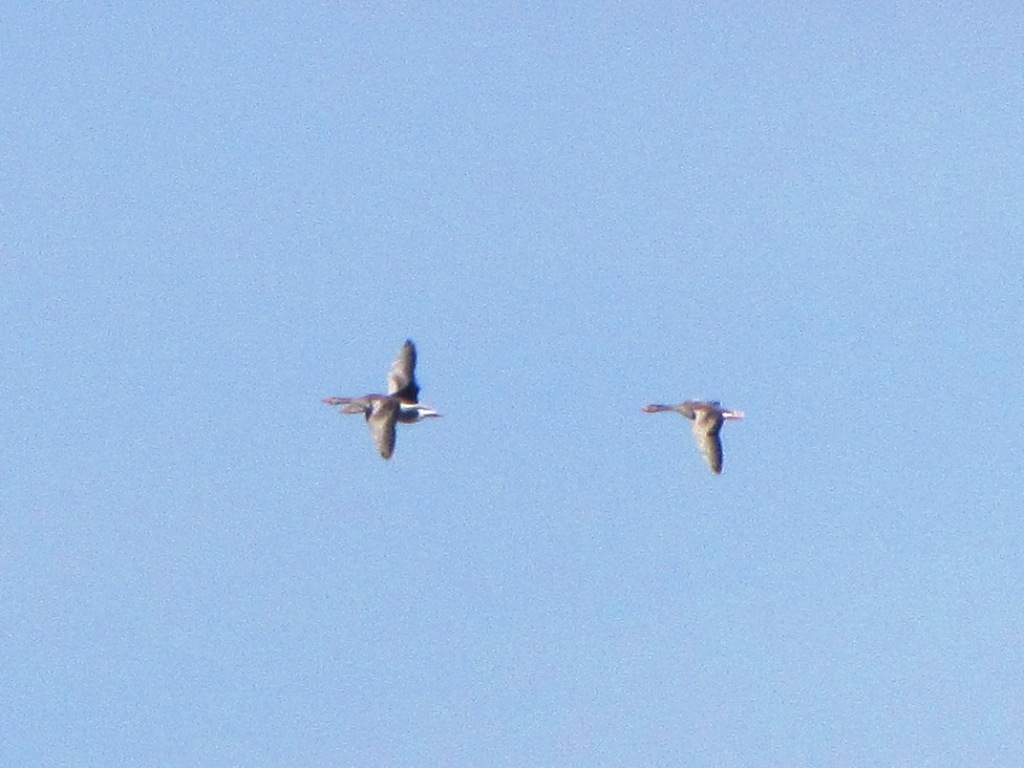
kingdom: Animalia
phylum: Chordata
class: Aves
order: Anseriformes
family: Anatidae
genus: Anser
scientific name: Anser anser
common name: Greylag goose
